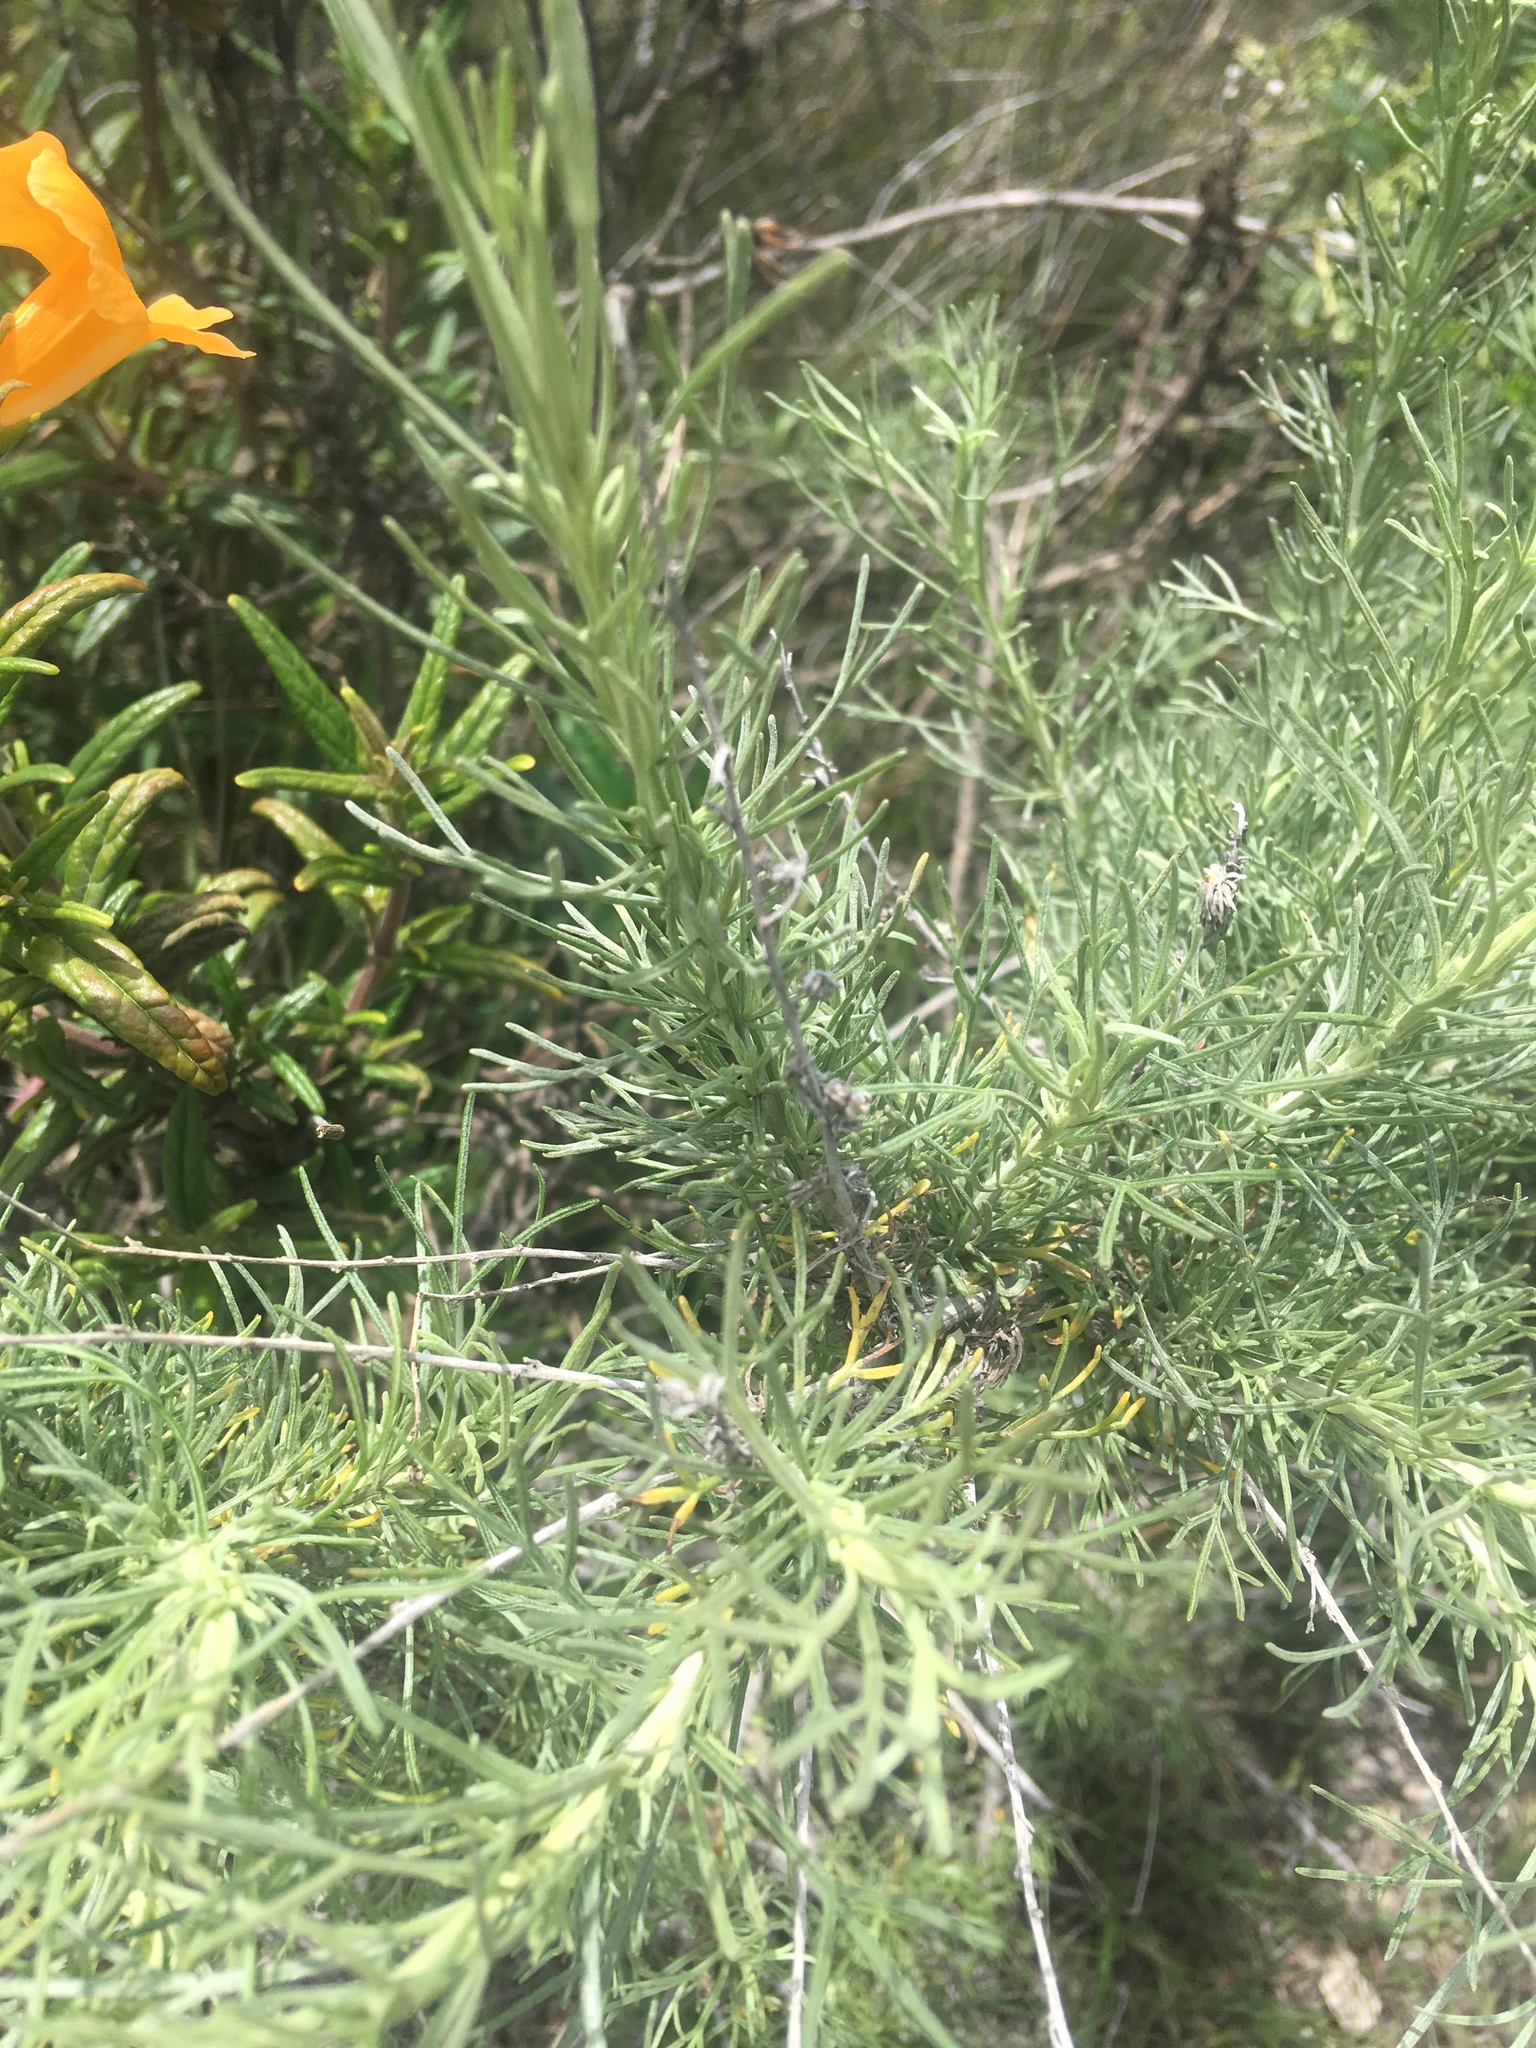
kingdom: Plantae
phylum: Tracheophyta
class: Magnoliopsida
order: Asterales
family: Asteraceae
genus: Artemisia
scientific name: Artemisia californica
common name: California sagebrush
